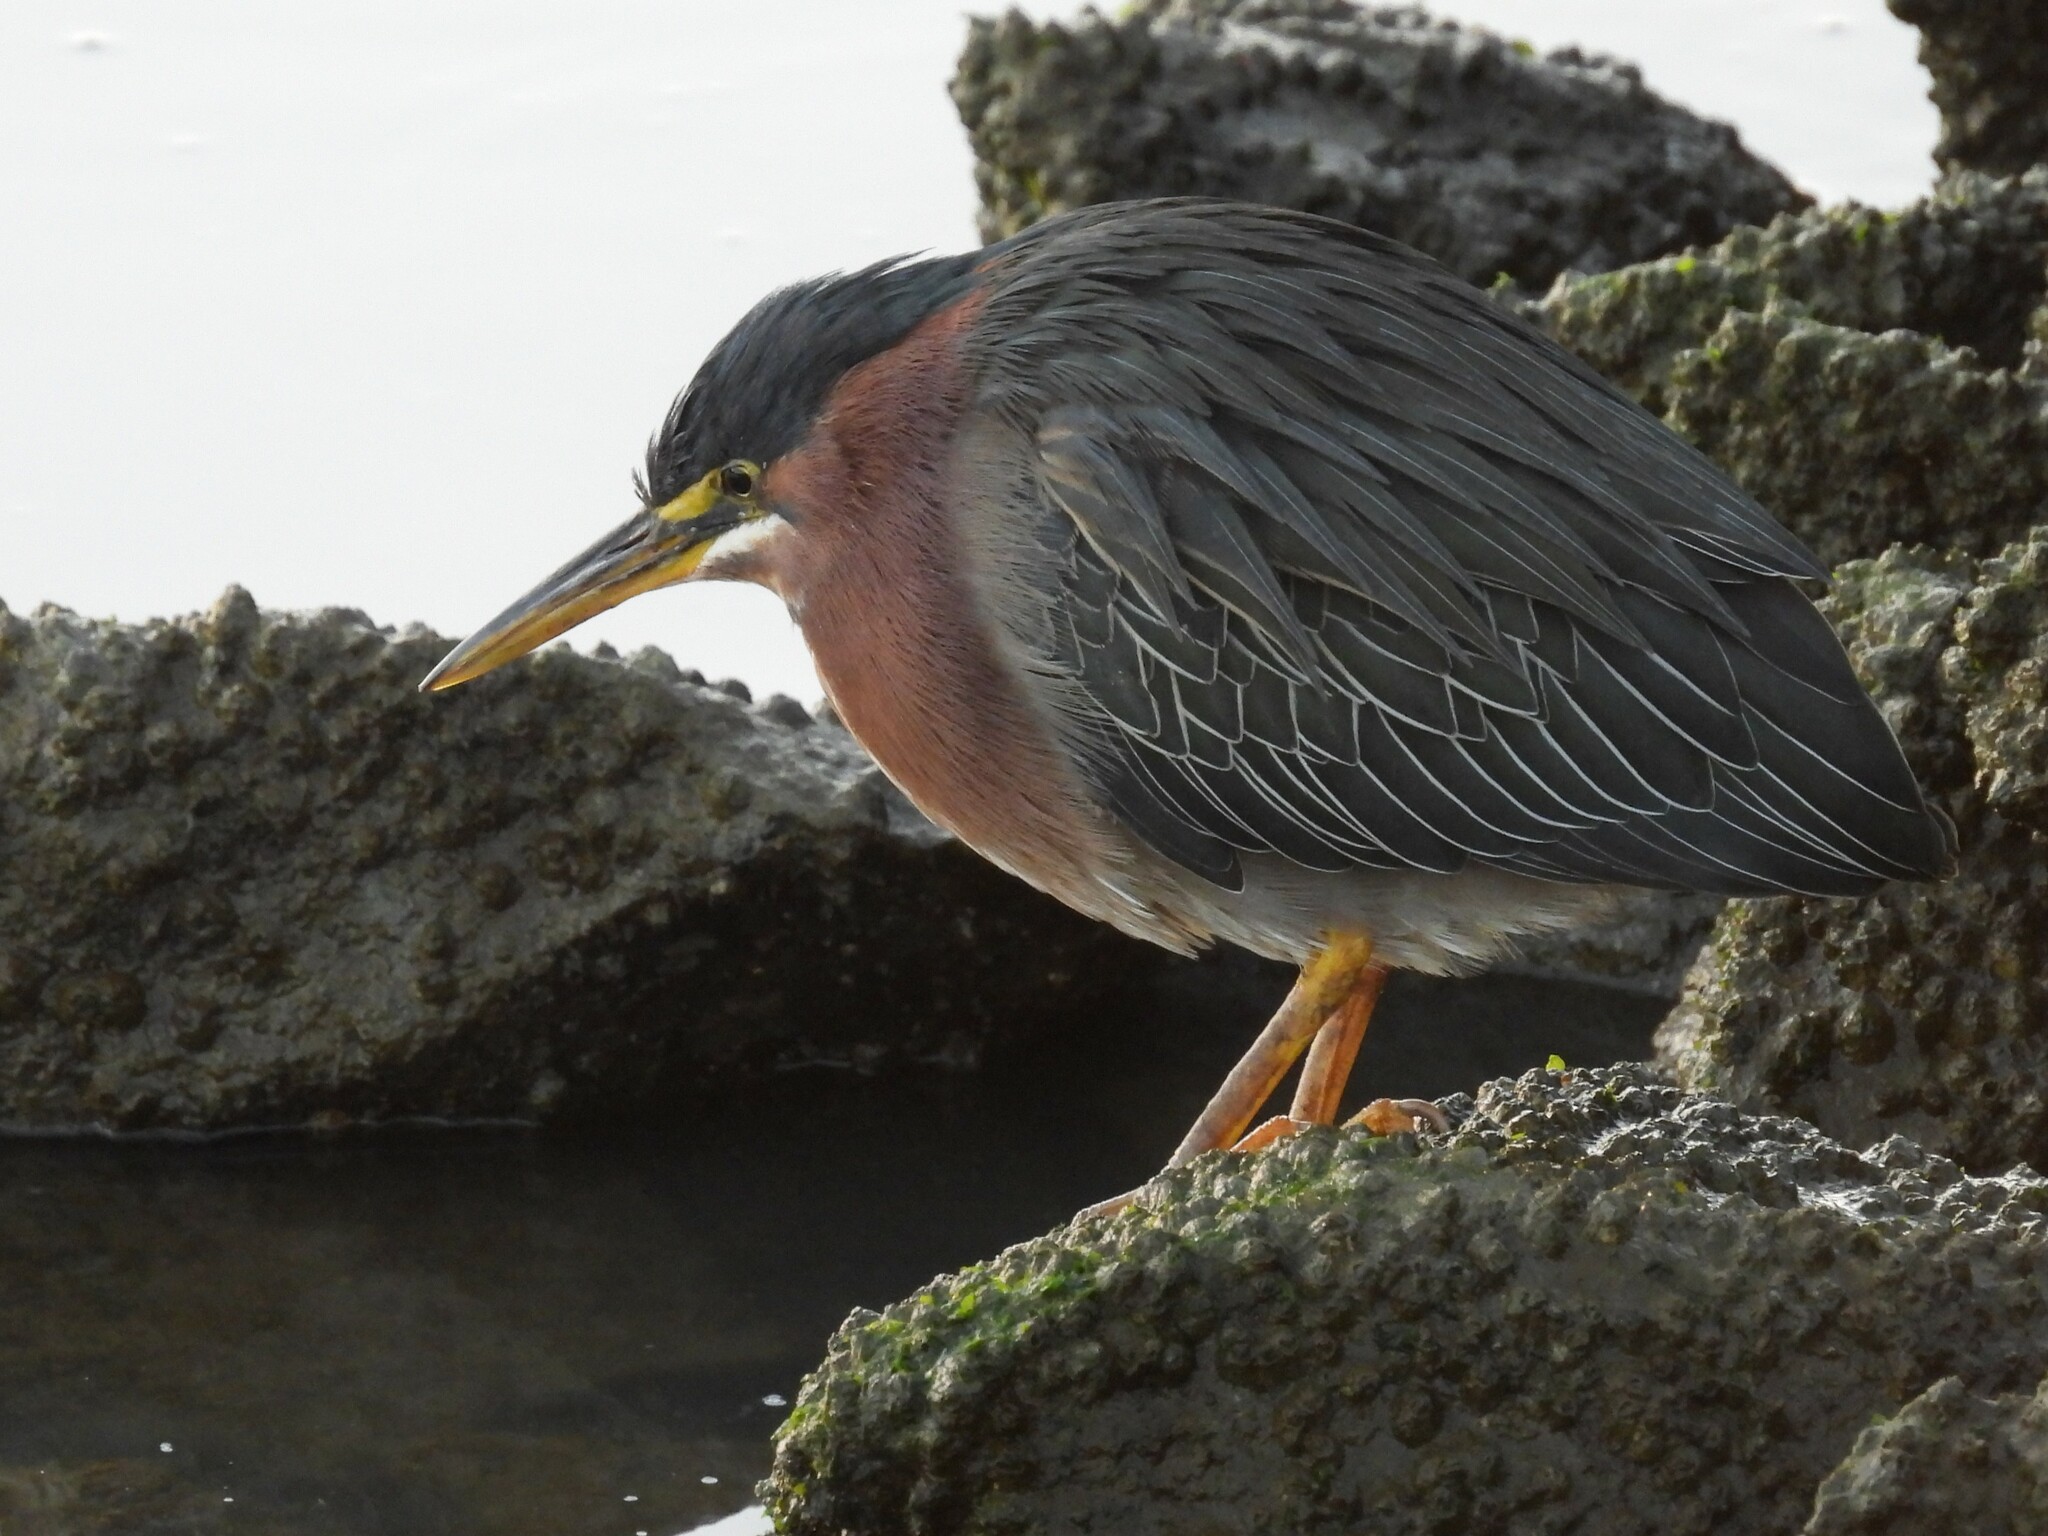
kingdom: Animalia
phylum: Chordata
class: Aves
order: Pelecaniformes
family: Ardeidae
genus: Butorides
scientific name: Butorides virescens
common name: Green heron
